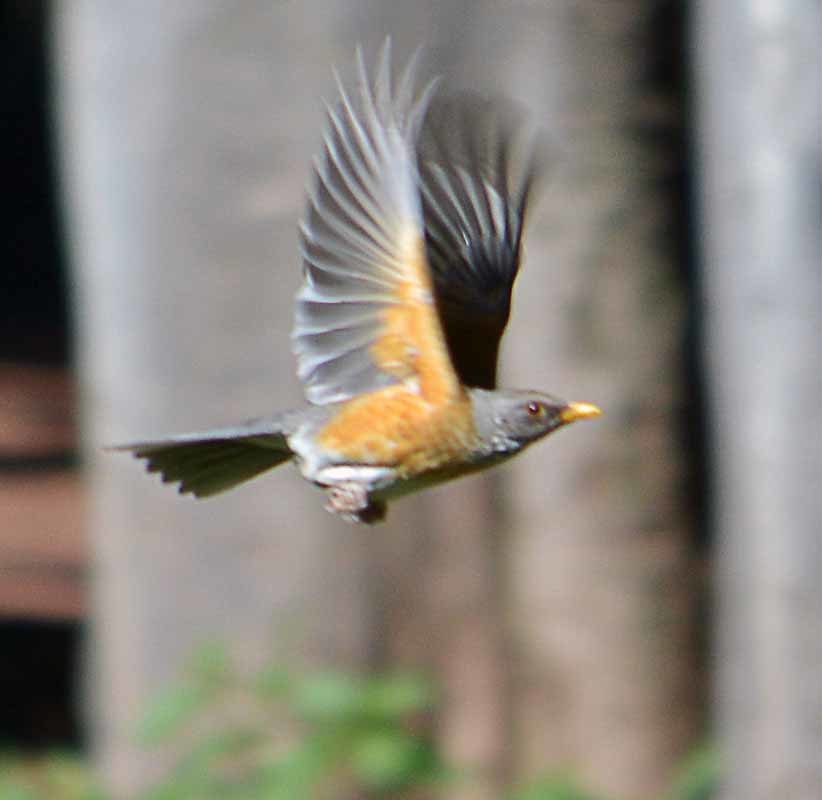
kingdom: Animalia
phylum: Chordata
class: Aves
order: Passeriformes
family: Turdidae
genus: Turdus
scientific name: Turdus rufopalliatus
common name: Rufous-backed robin
